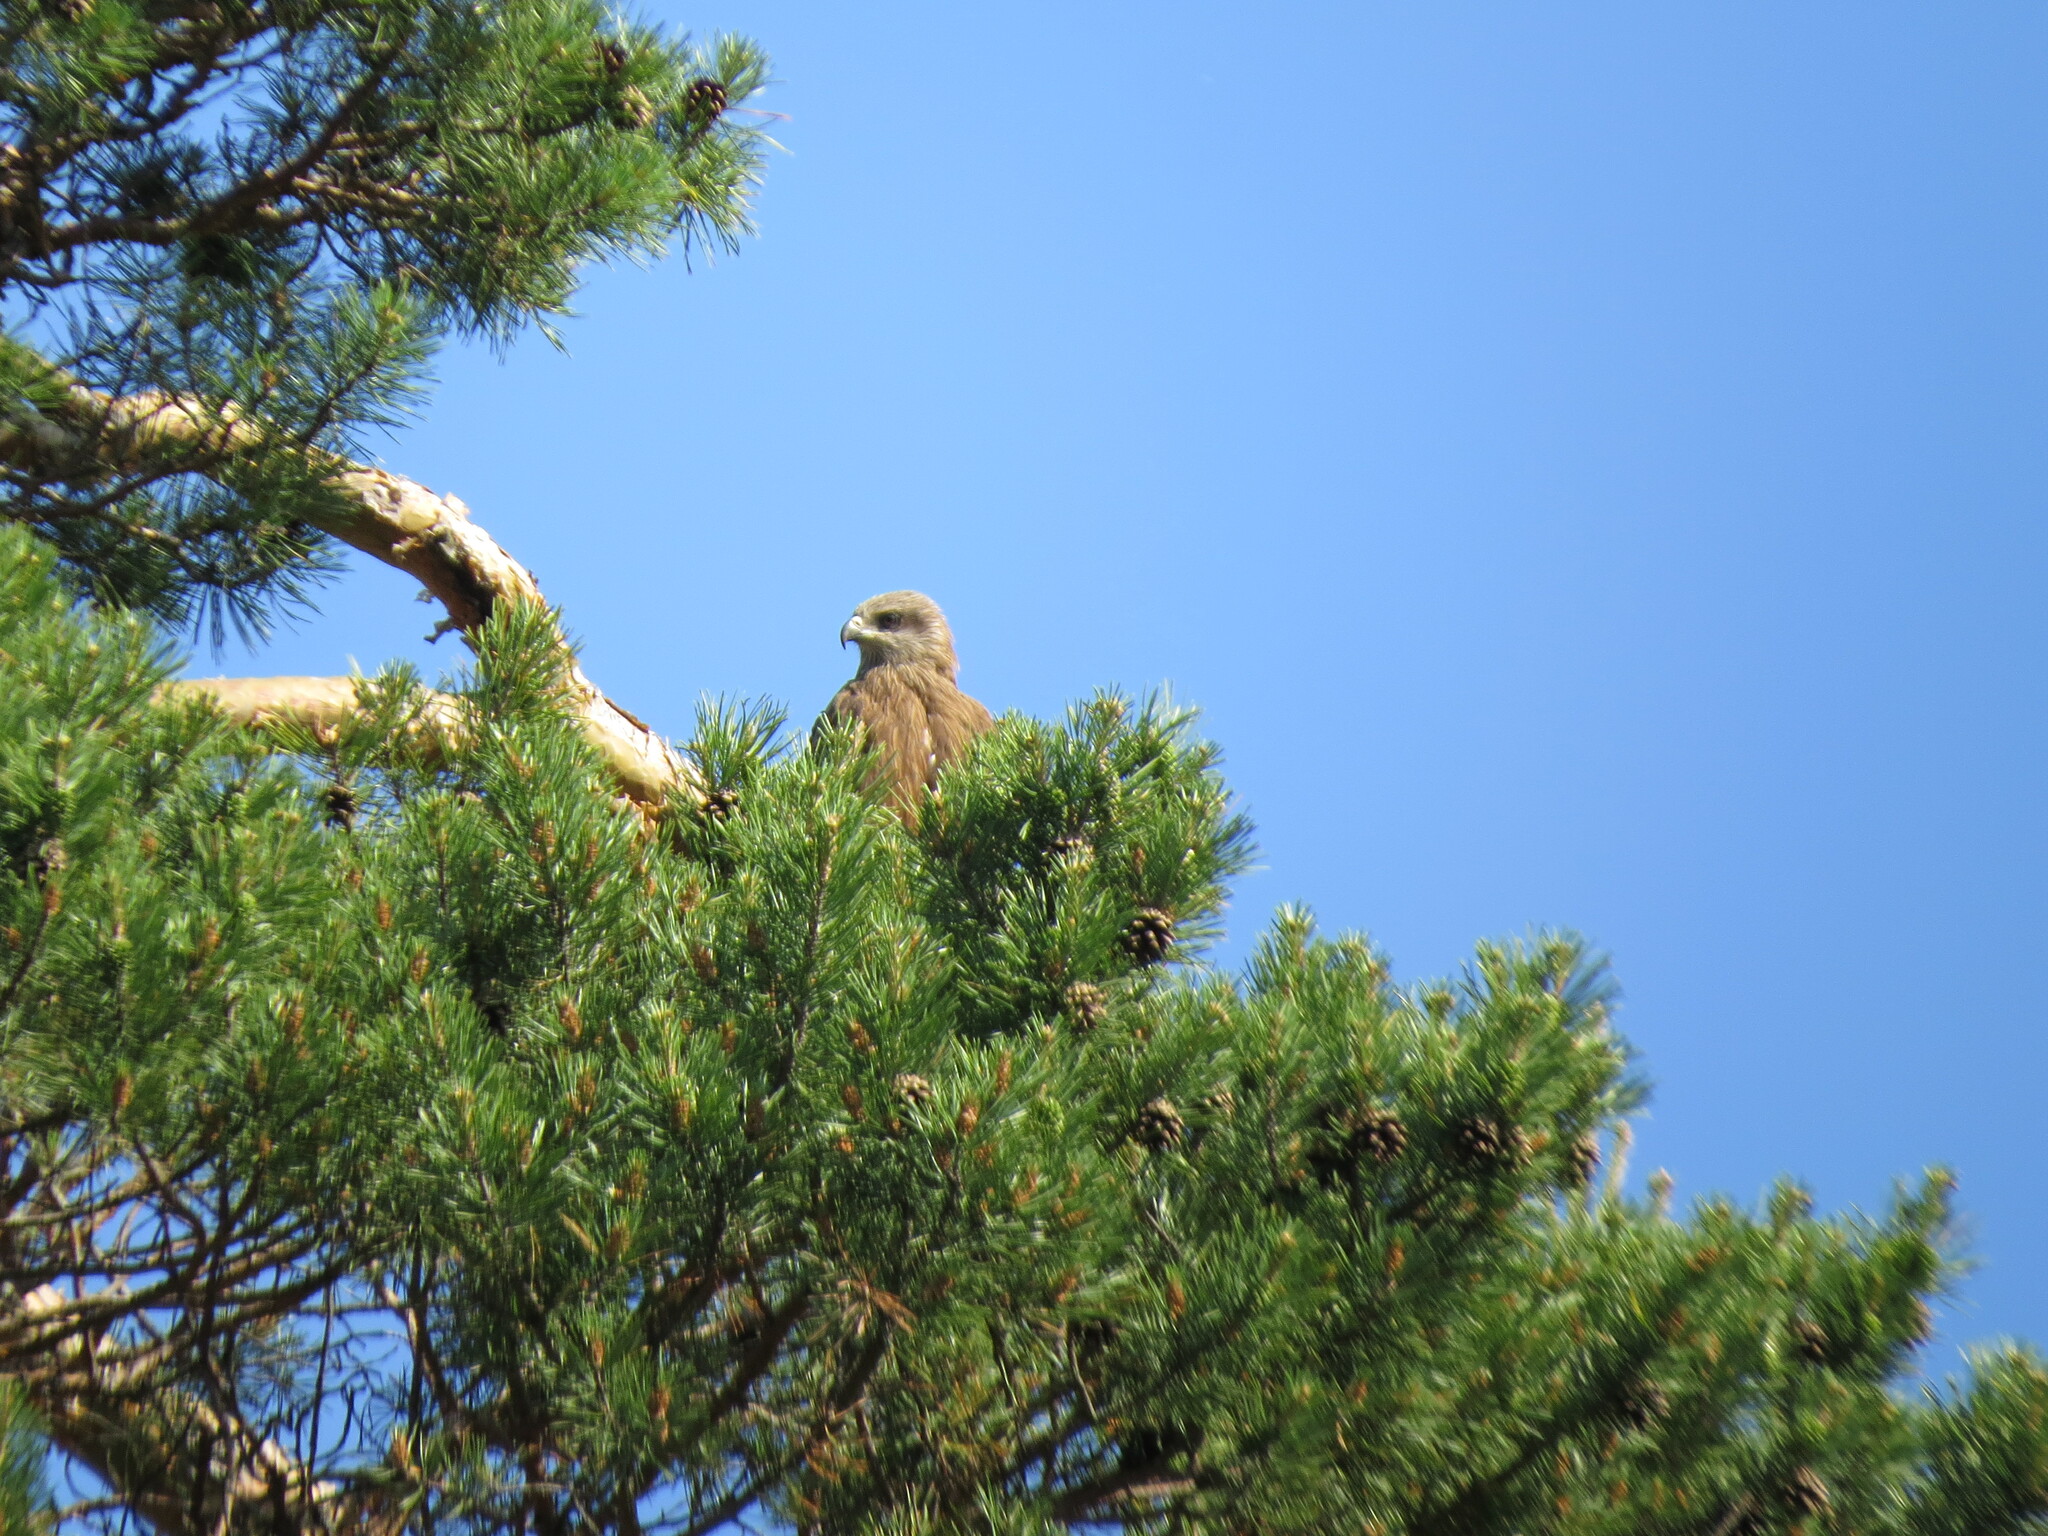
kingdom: Animalia
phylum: Chordata
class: Aves
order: Accipitriformes
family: Accipitridae
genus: Milvus
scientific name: Milvus migrans
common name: Black kite
